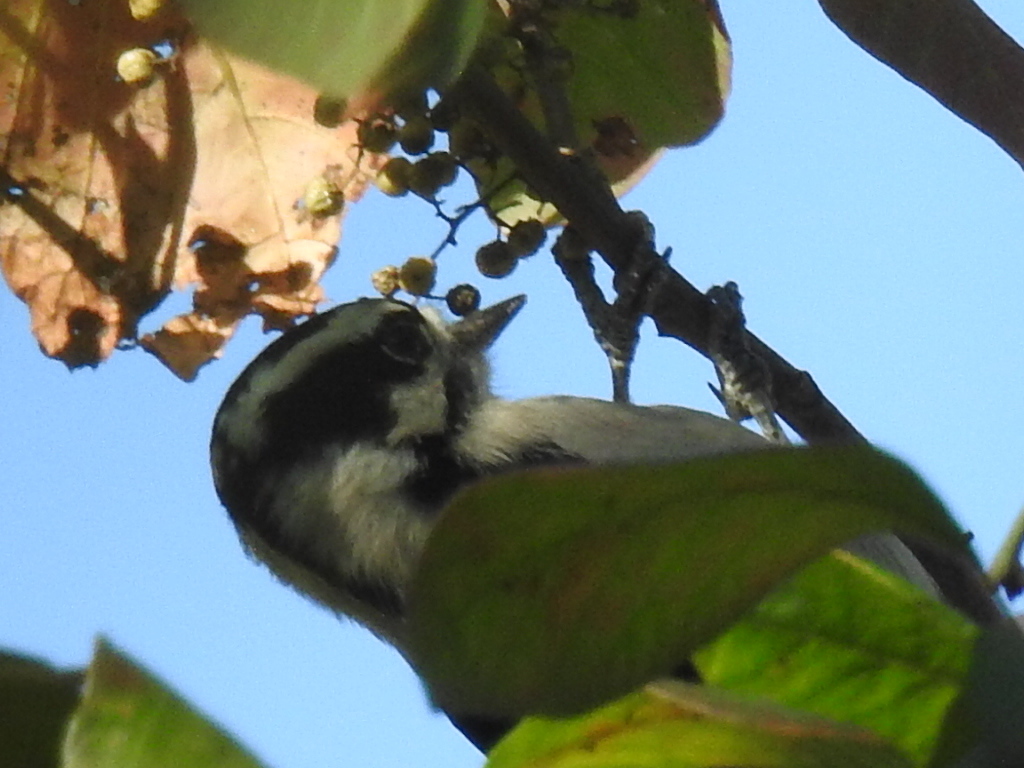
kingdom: Animalia
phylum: Chordata
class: Aves
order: Piciformes
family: Picidae
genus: Dryobates
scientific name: Dryobates pubescens
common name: Downy woodpecker
